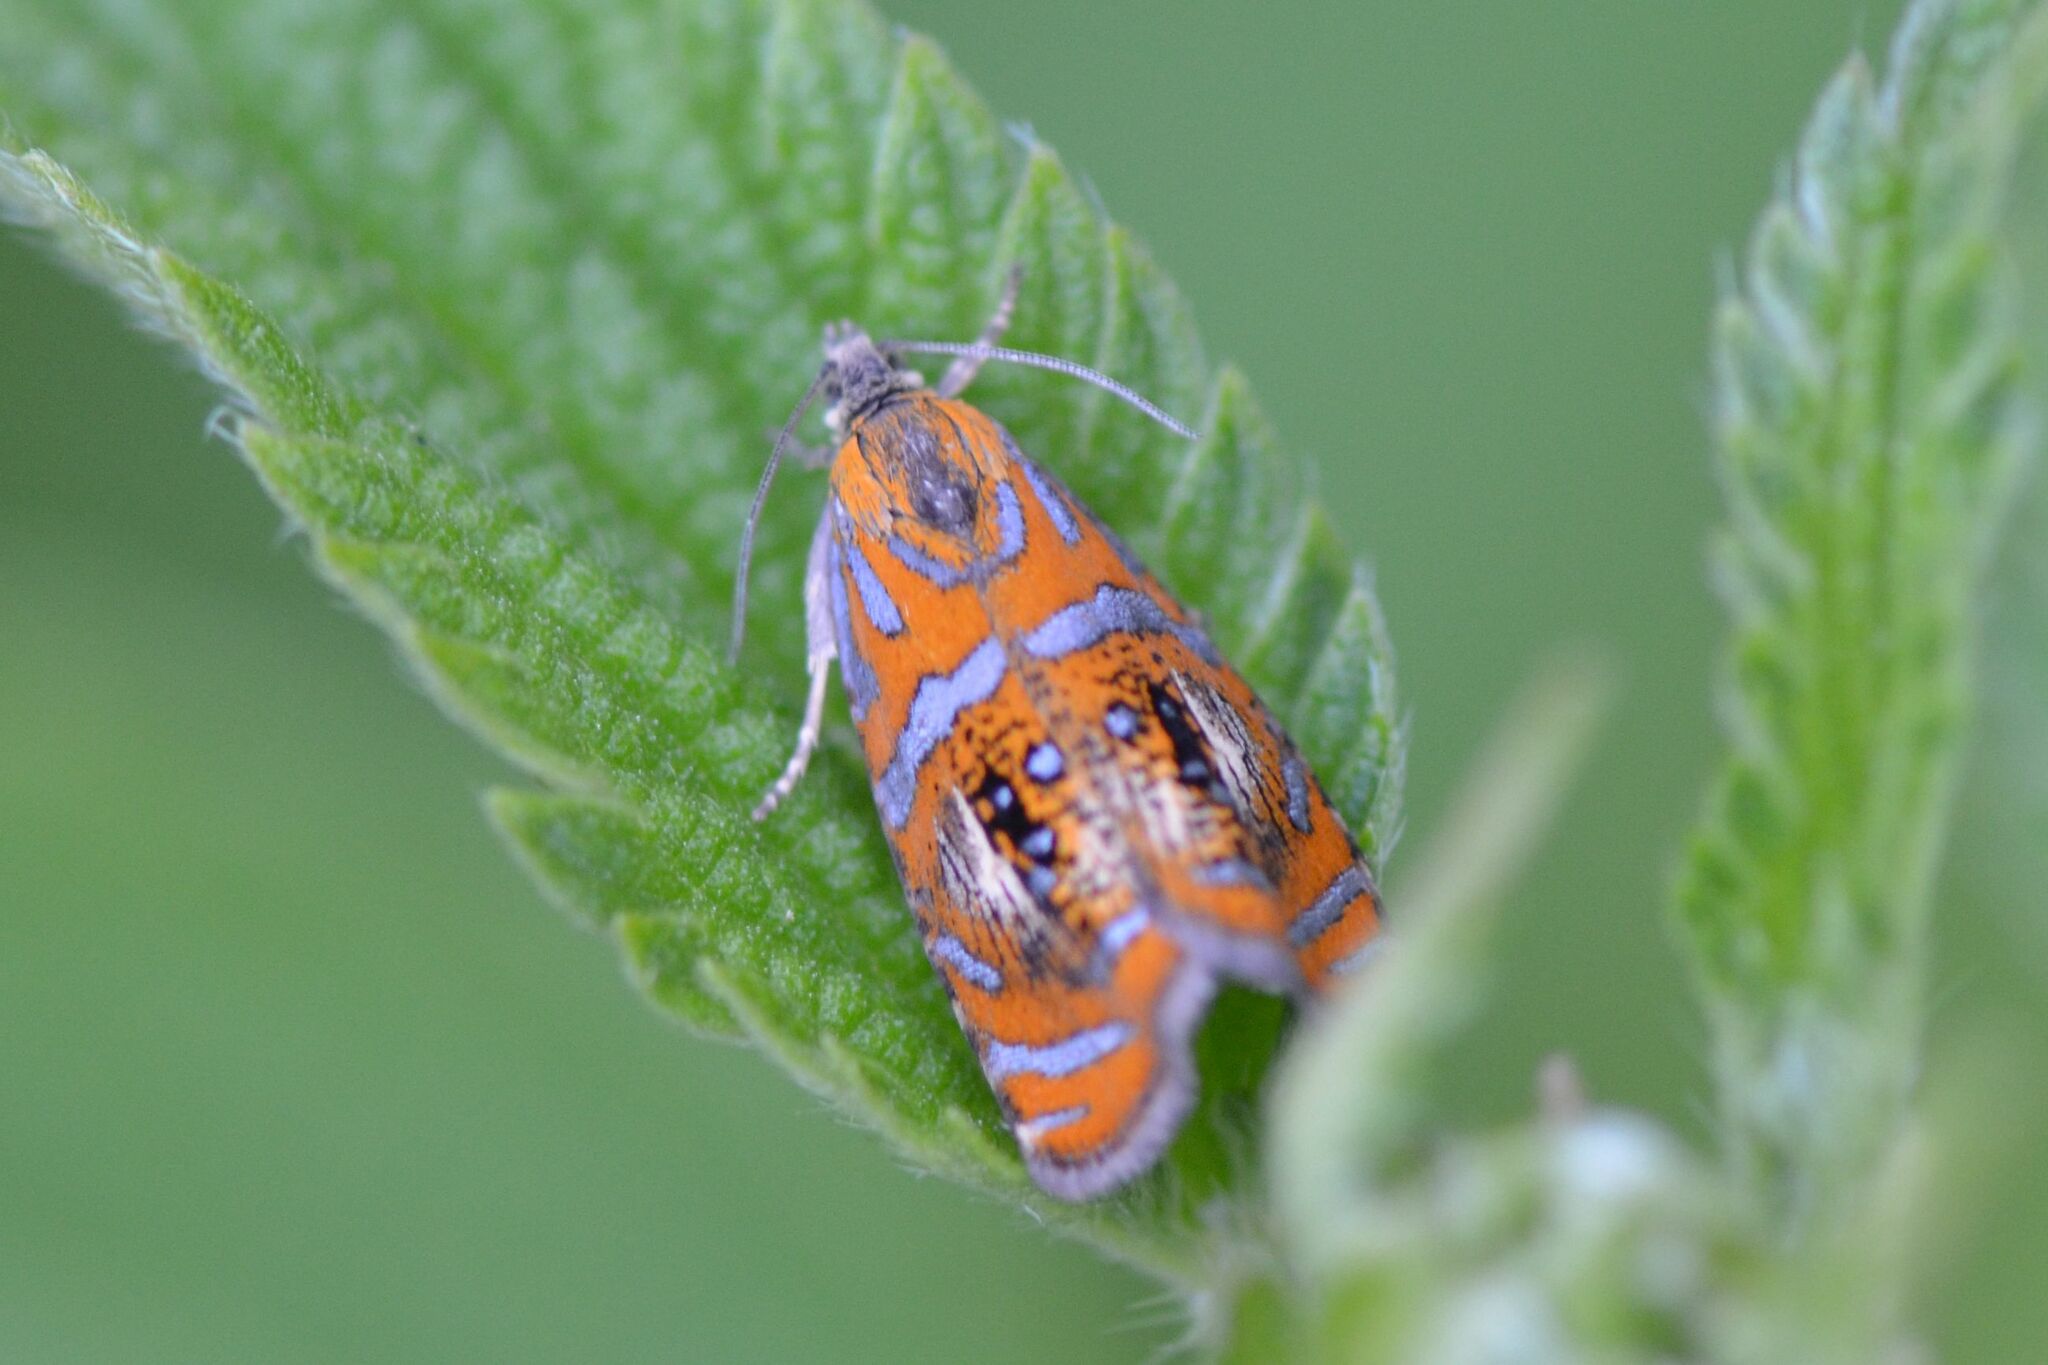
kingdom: Animalia
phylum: Arthropoda
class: Insecta
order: Lepidoptera
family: Tortricidae
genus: Olethreutes
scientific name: Olethreutes arcuella
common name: Arched marble
